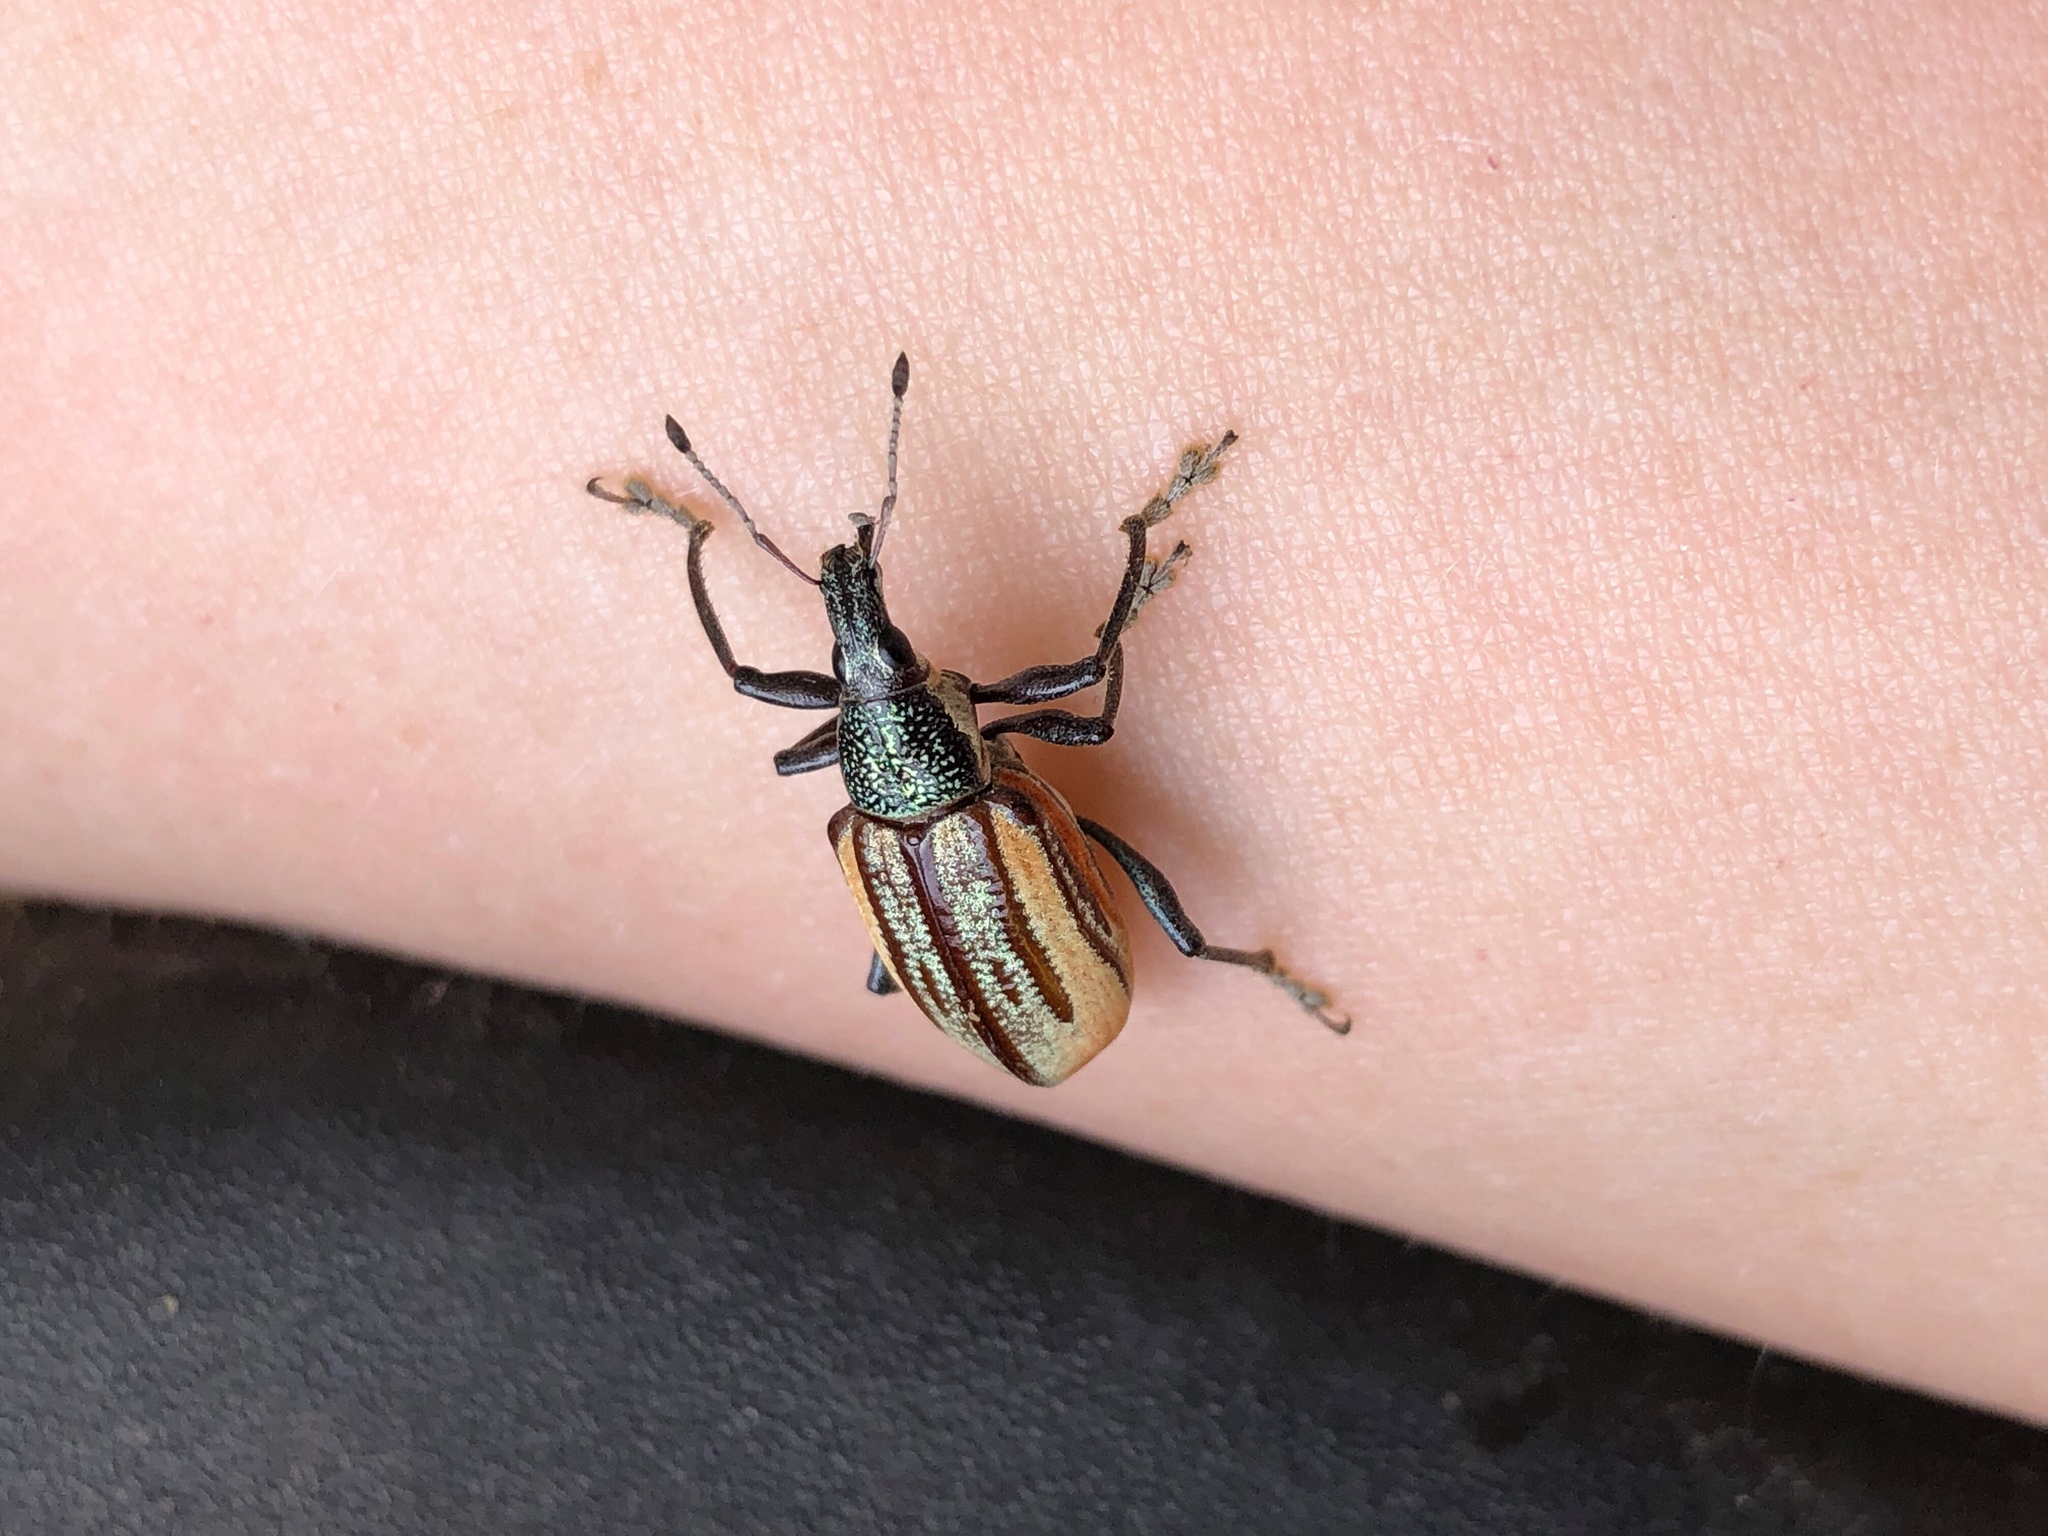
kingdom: Animalia
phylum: Arthropoda
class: Insecta
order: Coleoptera
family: Curculionidae
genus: Diaprepes
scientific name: Diaprepes abbreviatus
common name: Root weevil
